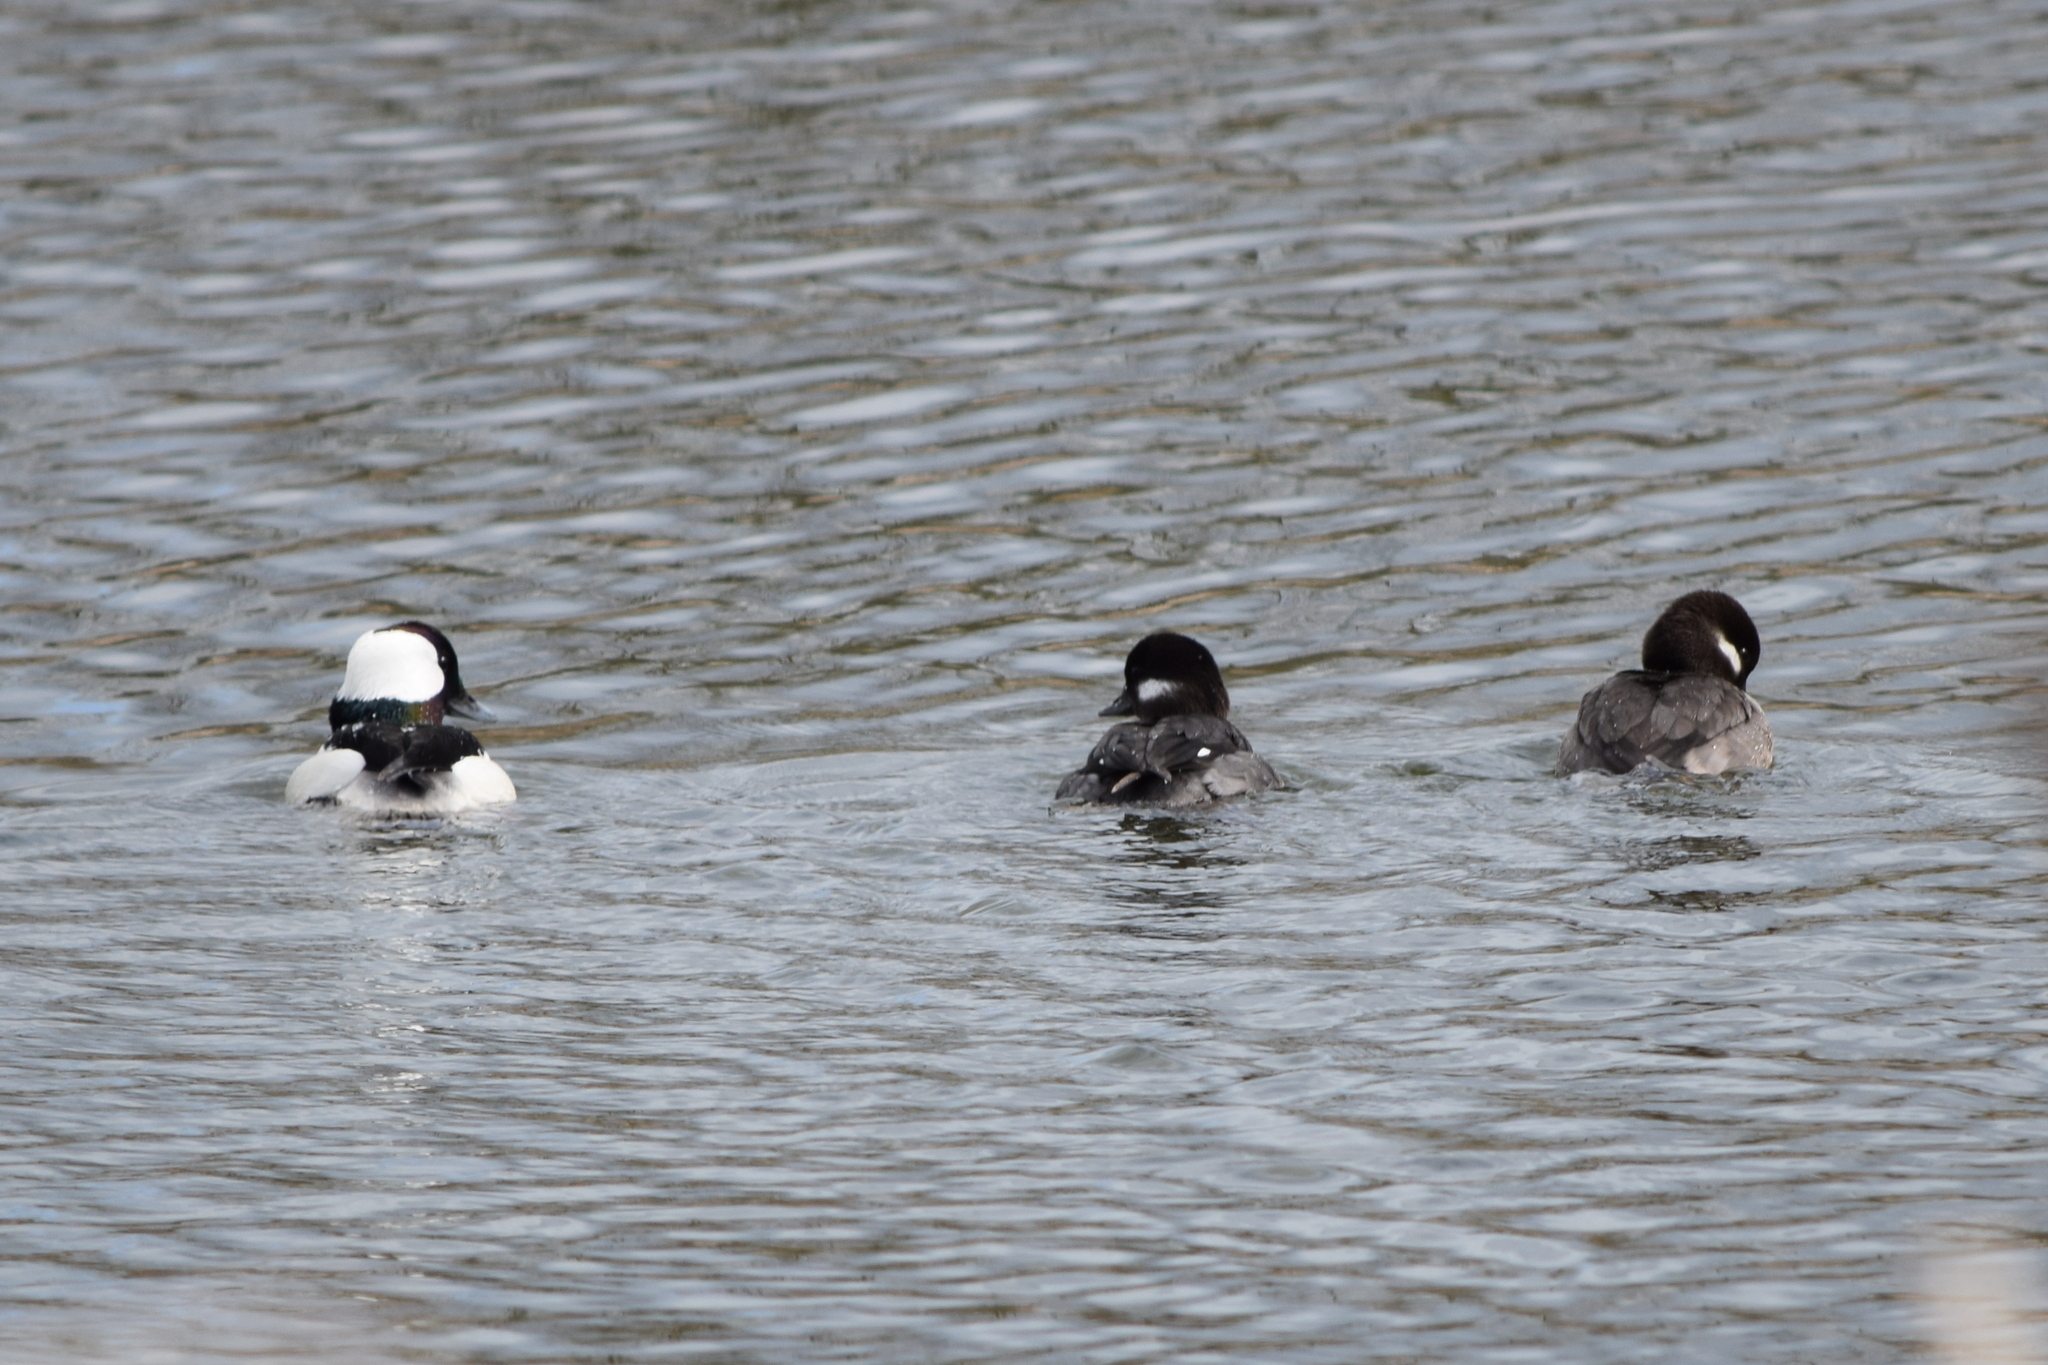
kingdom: Animalia
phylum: Chordata
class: Aves
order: Anseriformes
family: Anatidae
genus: Bucephala
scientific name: Bucephala albeola
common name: Bufflehead
